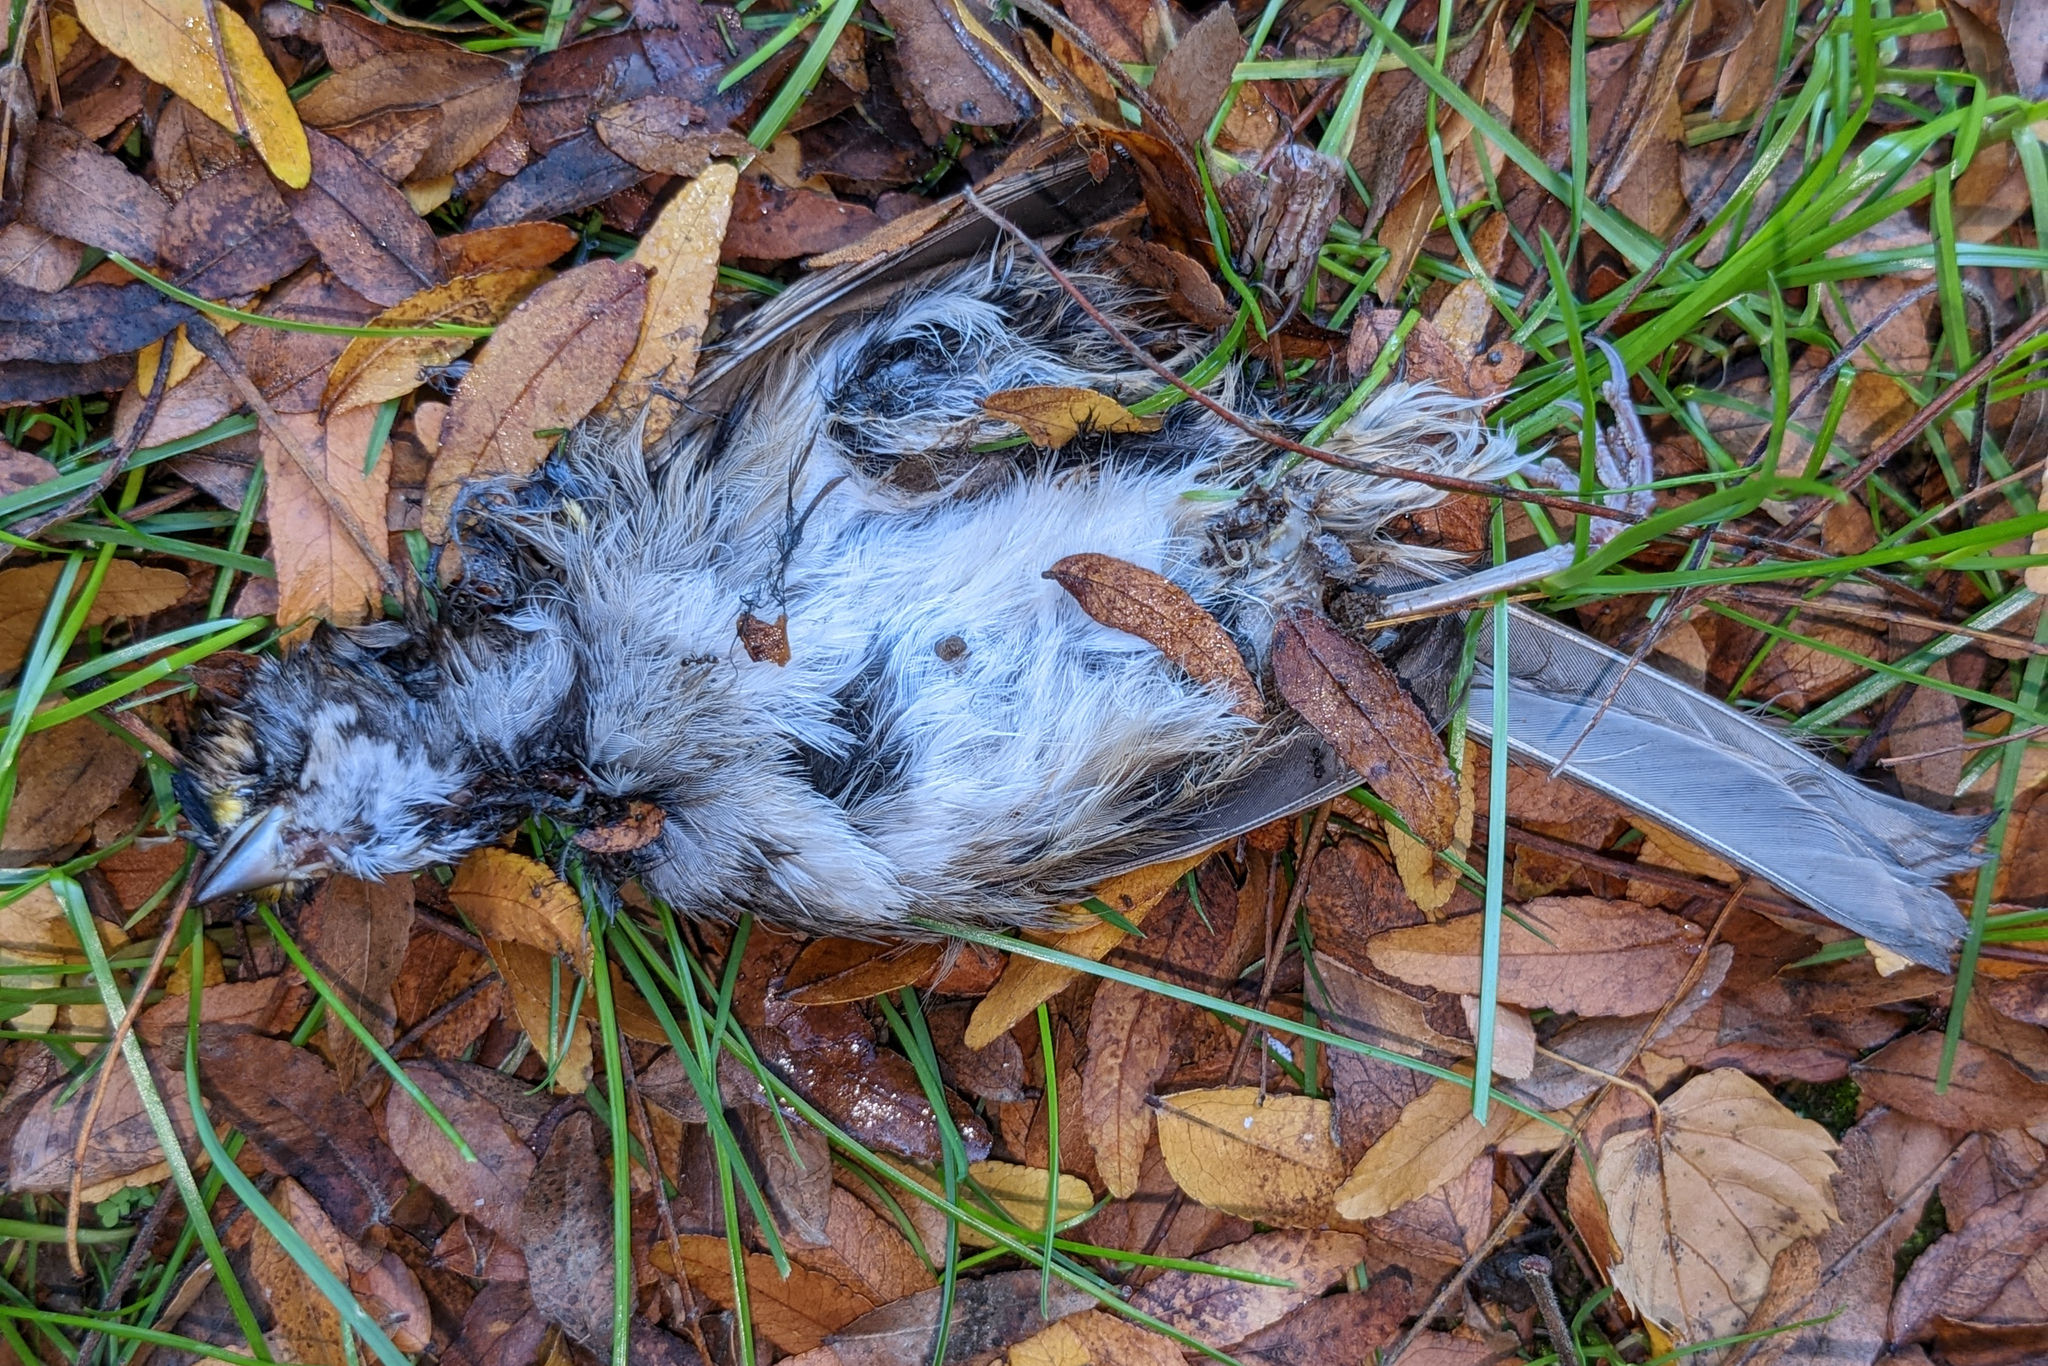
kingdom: Animalia
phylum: Chordata
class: Aves
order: Passeriformes
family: Passerellidae
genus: Zonotrichia
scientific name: Zonotrichia albicollis
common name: White-throated sparrow
